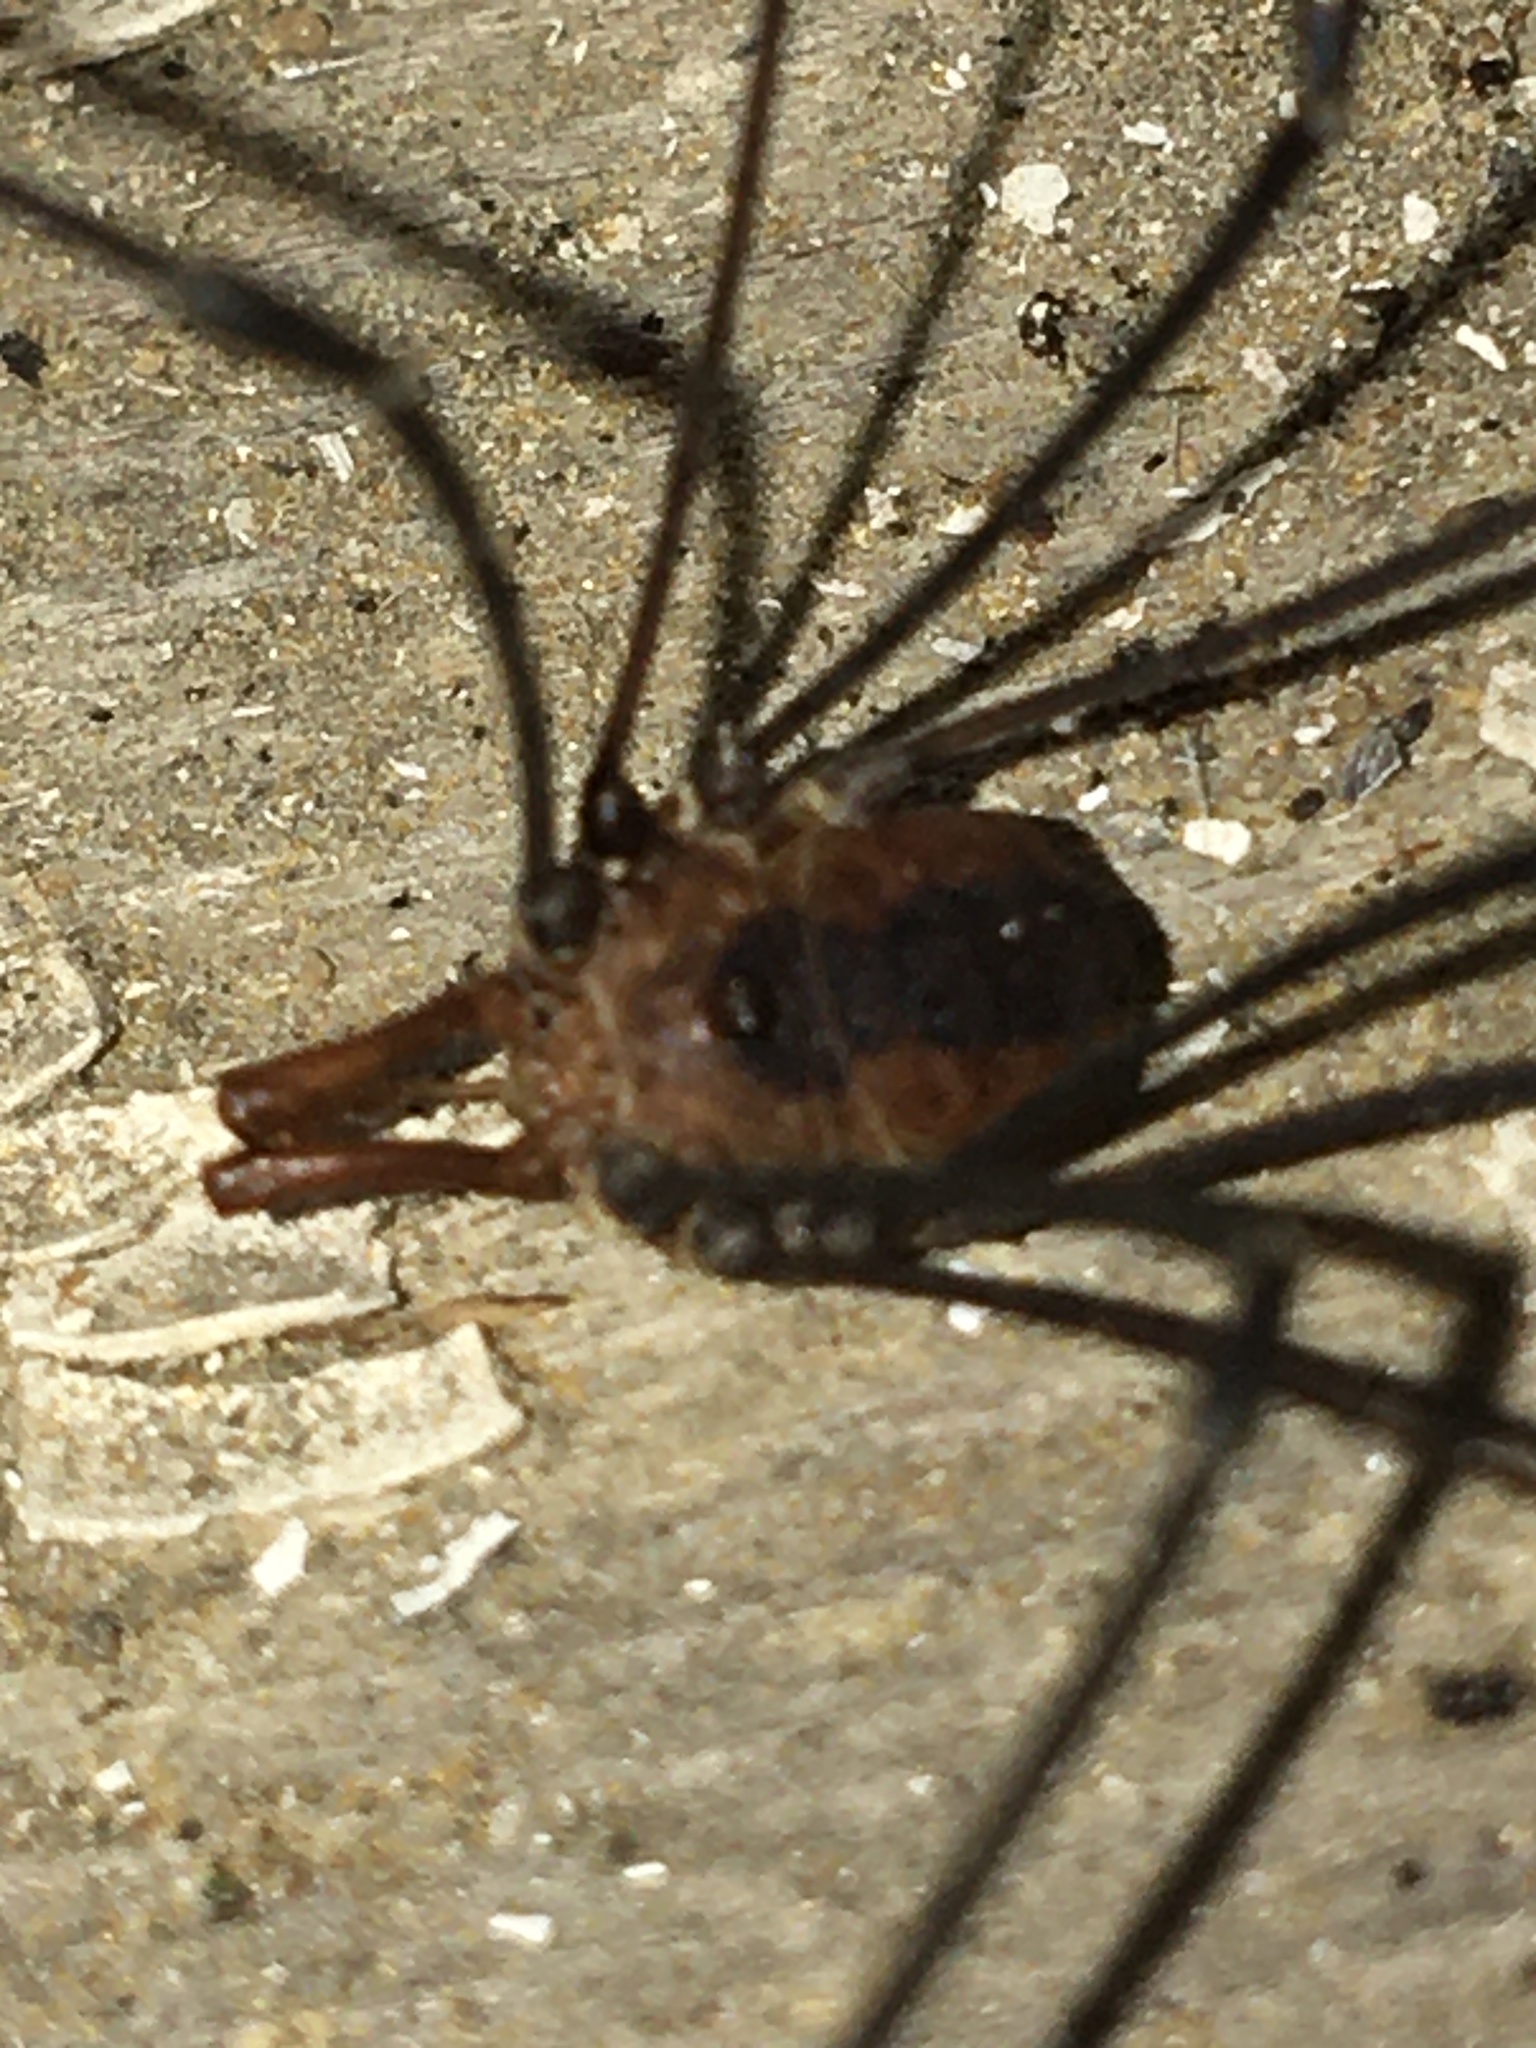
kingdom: Animalia
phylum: Arthropoda
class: Arachnida
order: Opiliones
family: Sclerosomatidae
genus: Leiobunum
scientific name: Leiobunum vittatum
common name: Eastern harvestman
